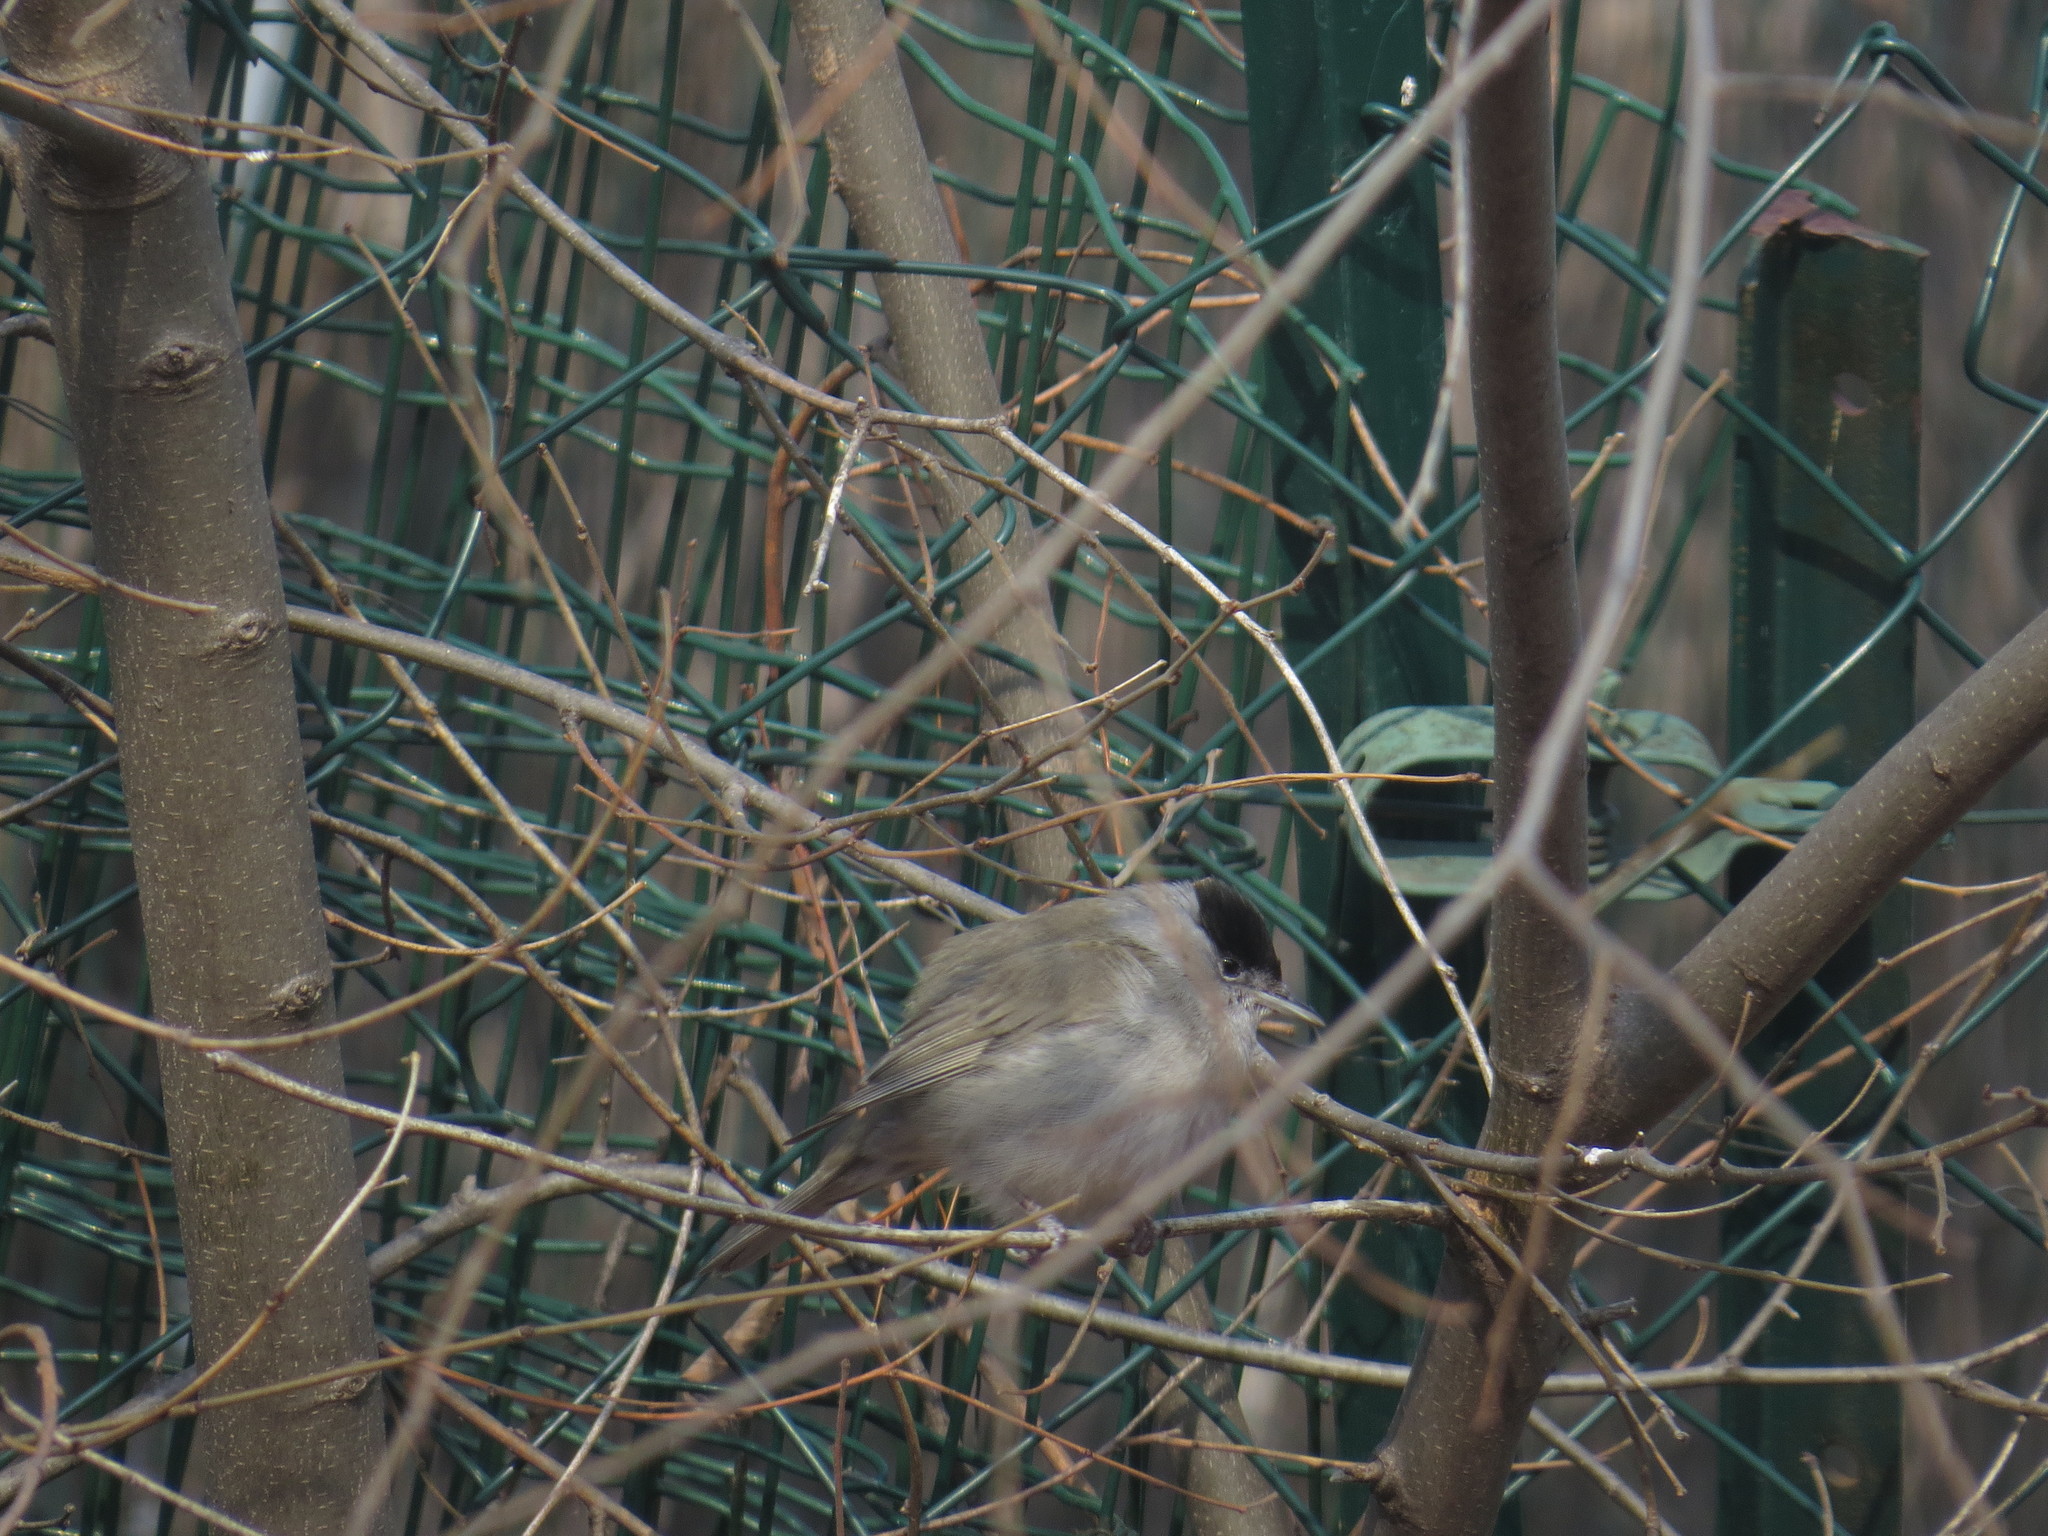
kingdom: Animalia
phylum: Chordata
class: Aves
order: Passeriformes
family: Sylviidae
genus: Sylvia
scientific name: Sylvia atricapilla
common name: Eurasian blackcap
